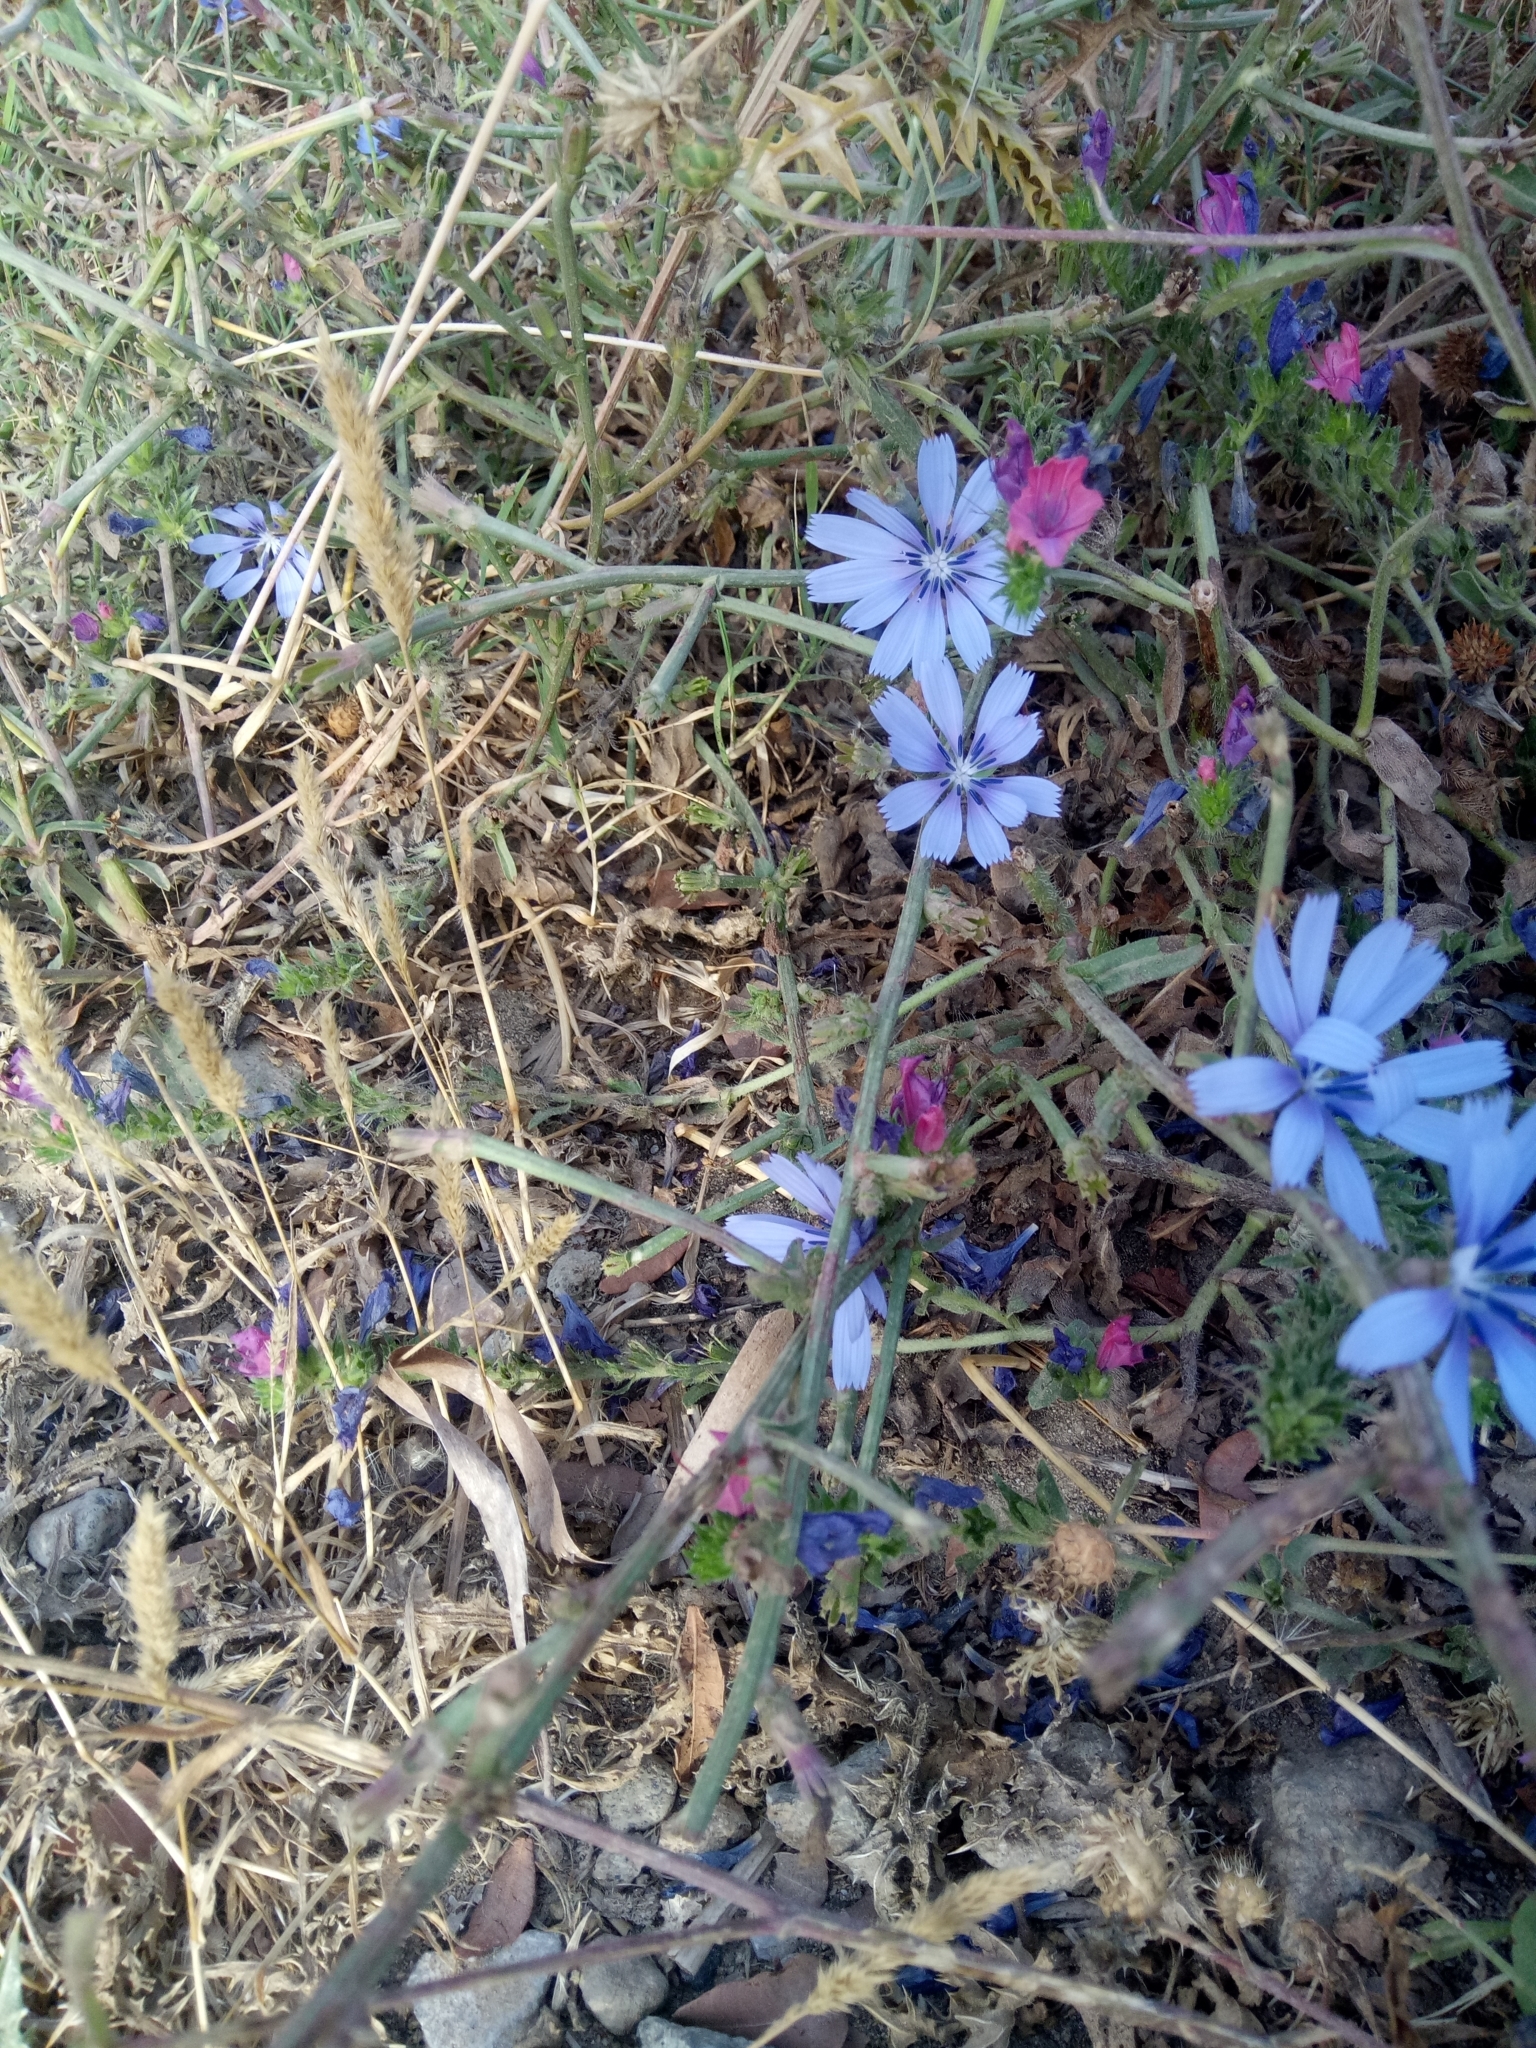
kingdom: Plantae
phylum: Tracheophyta
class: Magnoliopsida
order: Asterales
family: Asteraceae
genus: Cichorium
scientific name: Cichorium intybus
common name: Chicory
